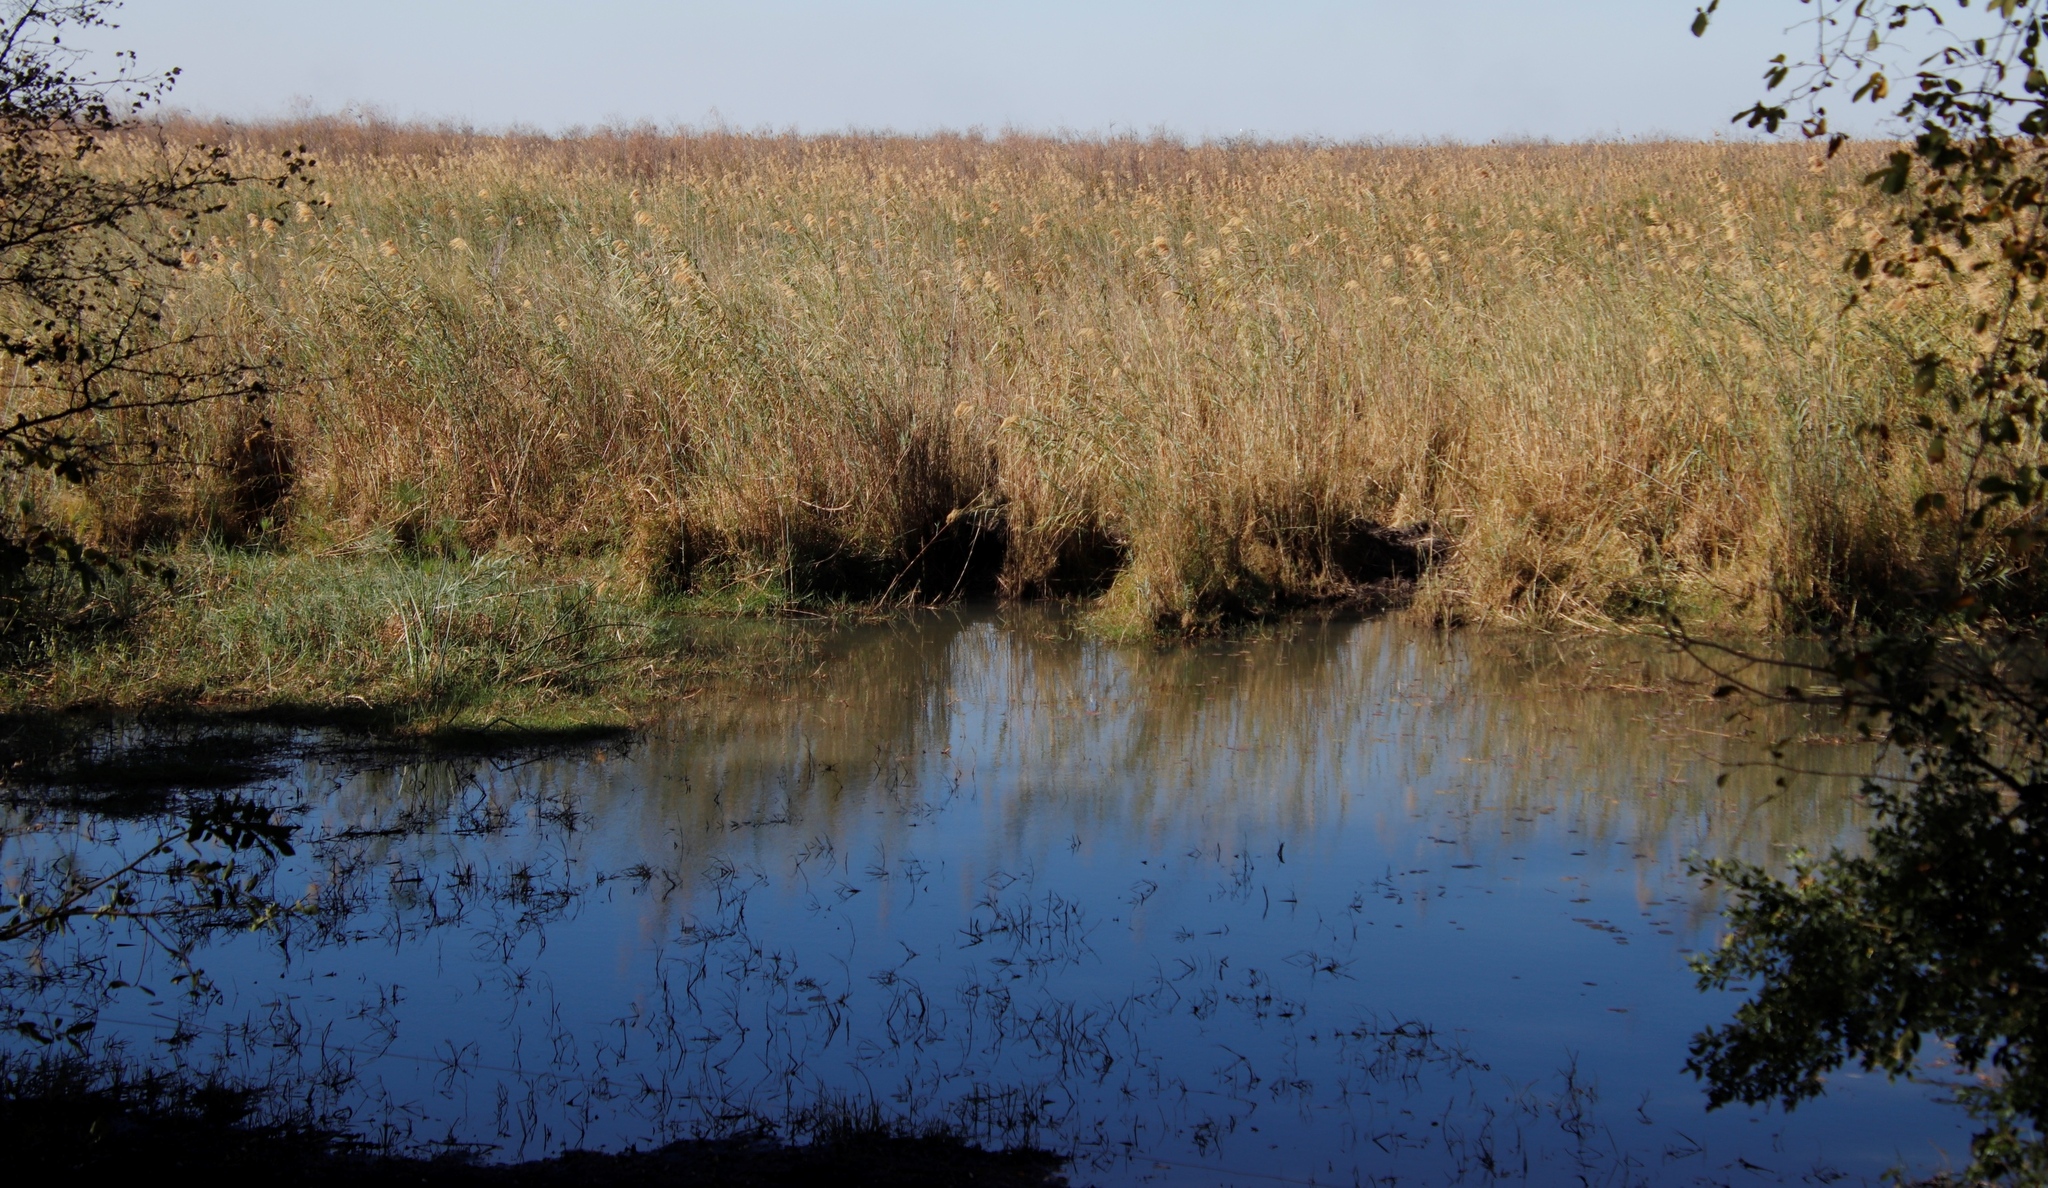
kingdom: Plantae
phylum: Tracheophyta
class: Liliopsida
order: Poales
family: Poaceae
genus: Phragmites
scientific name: Phragmites australis
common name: Common reed
